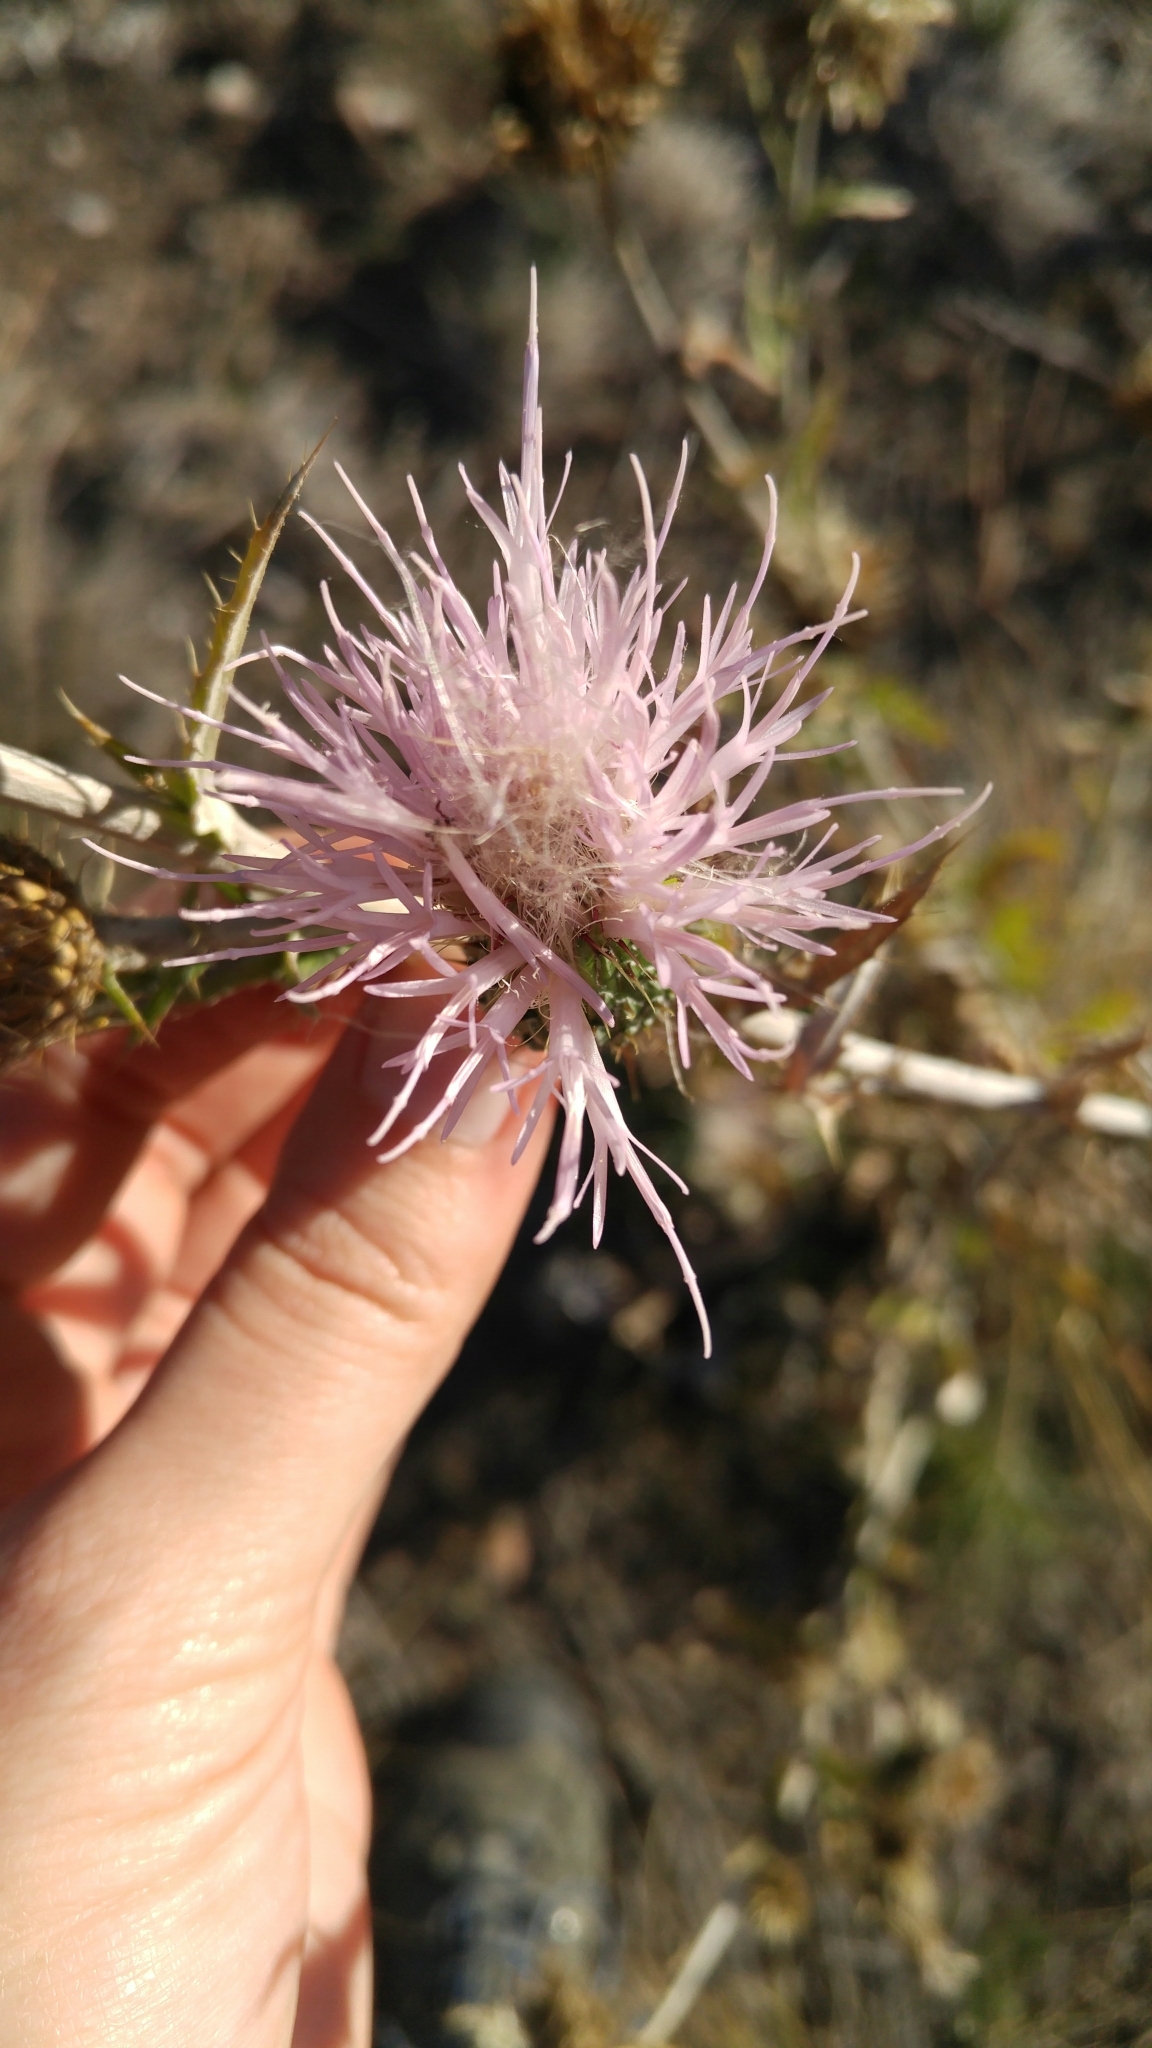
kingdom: Plantae
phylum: Tracheophyta
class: Magnoliopsida
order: Asterales
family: Asteraceae
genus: Cirsium
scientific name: Cirsium undulatum
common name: Pasture thistle
